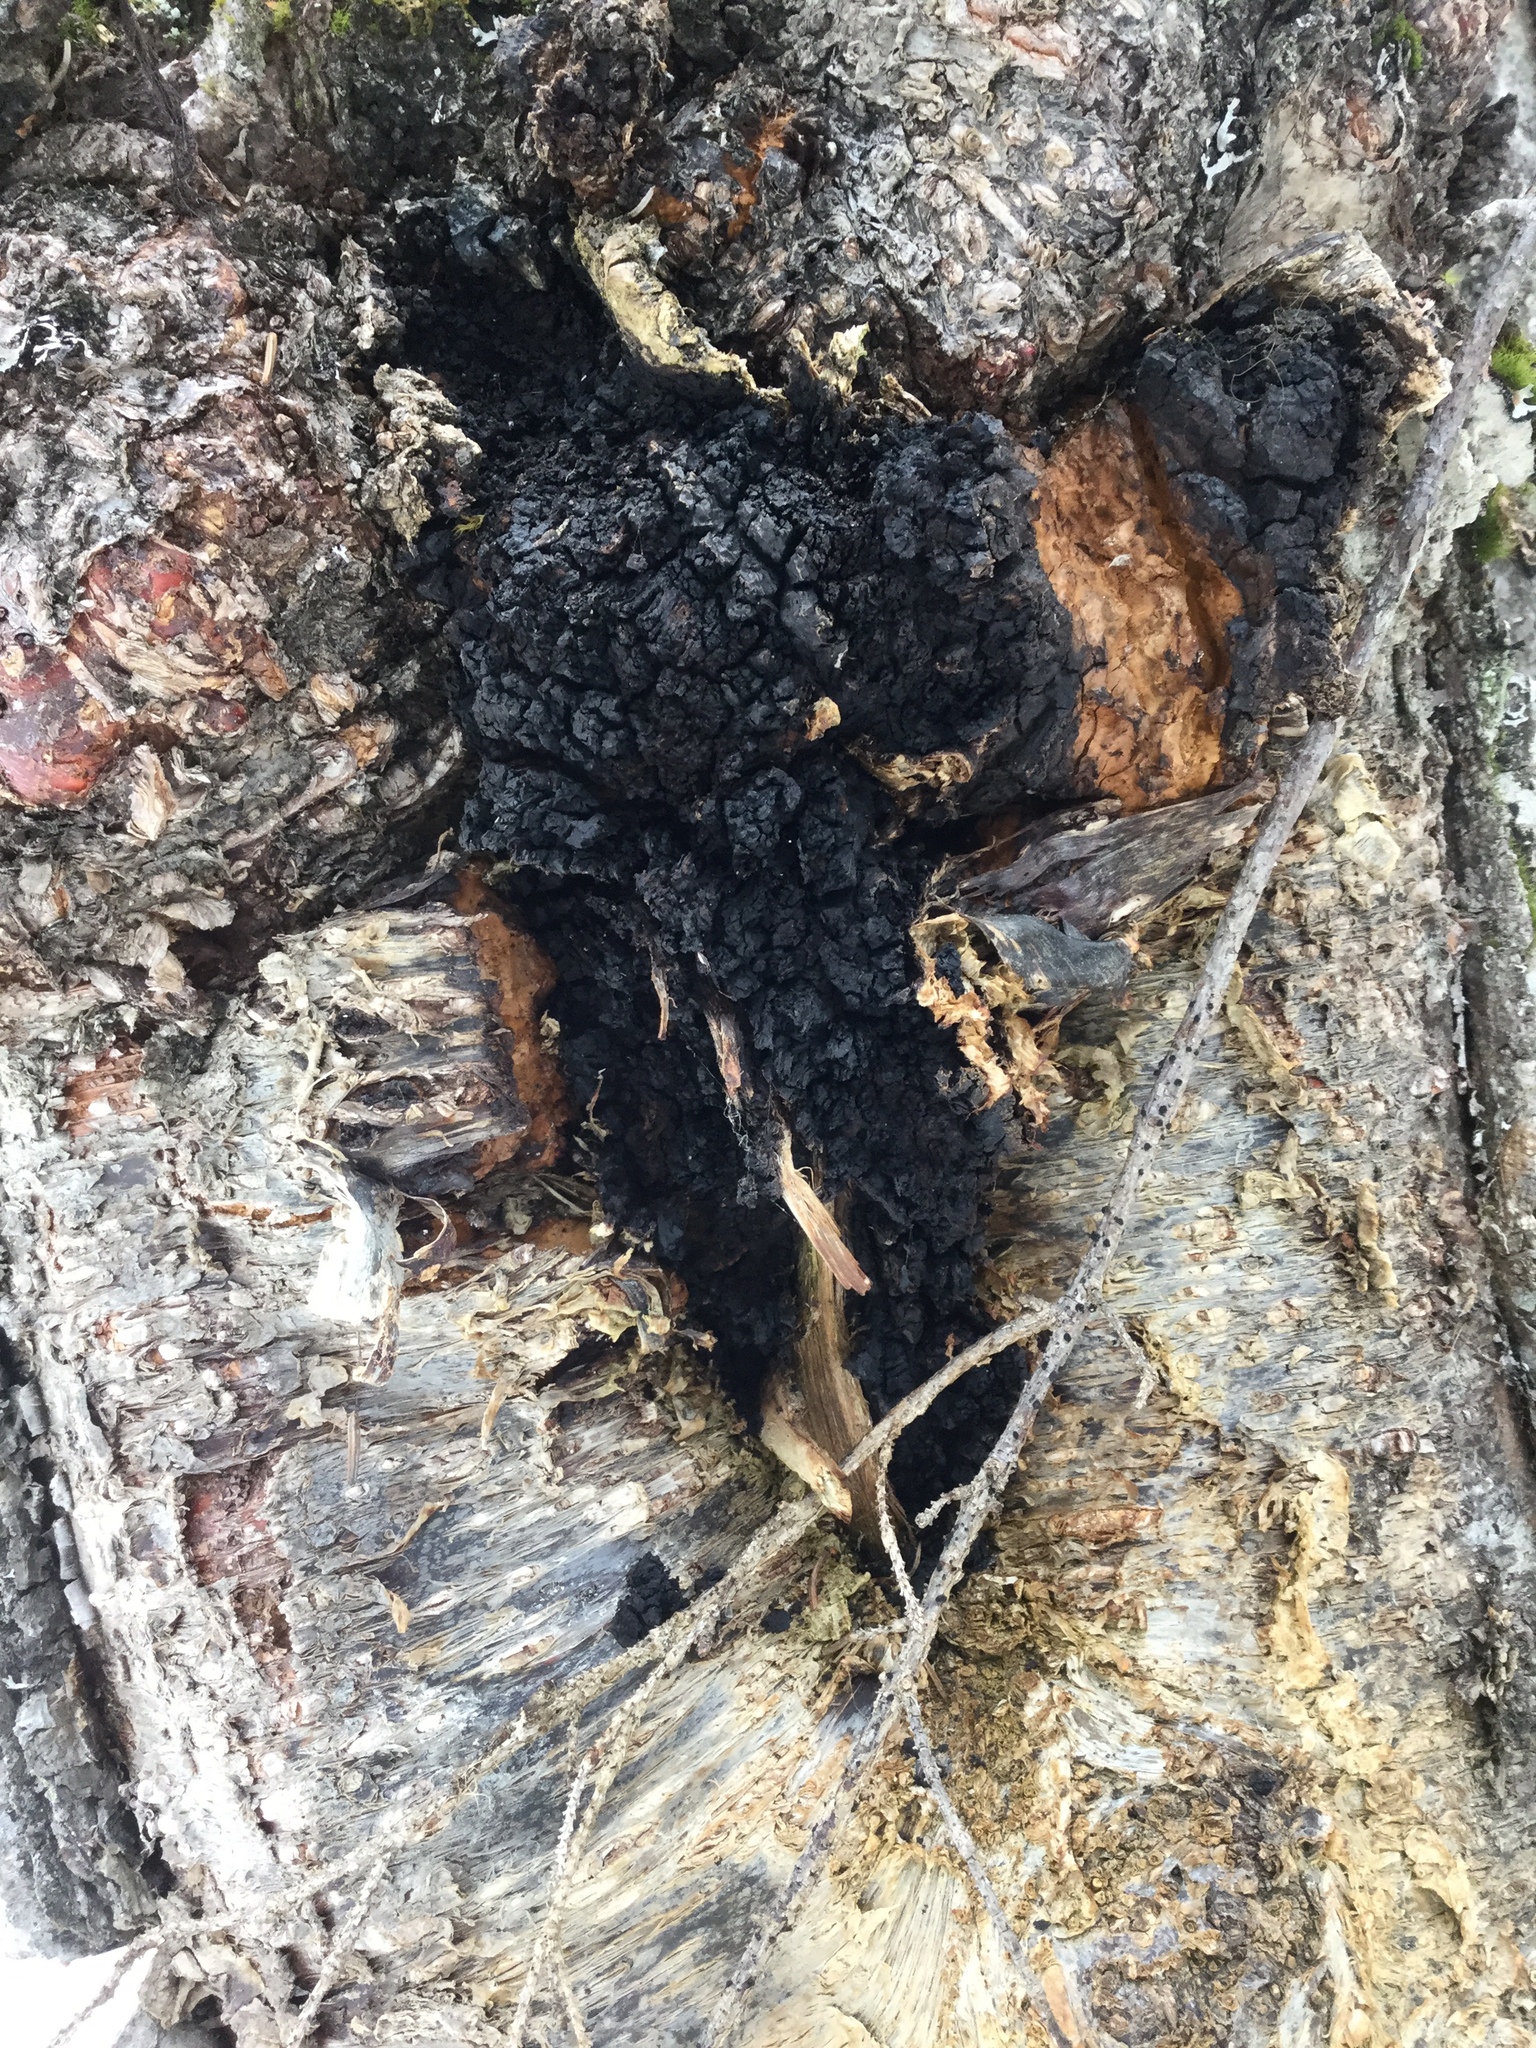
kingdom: Fungi
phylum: Basidiomycota
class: Agaricomycetes
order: Hymenochaetales
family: Hymenochaetaceae
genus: Inonotus
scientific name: Inonotus obliquus
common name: Chaga
